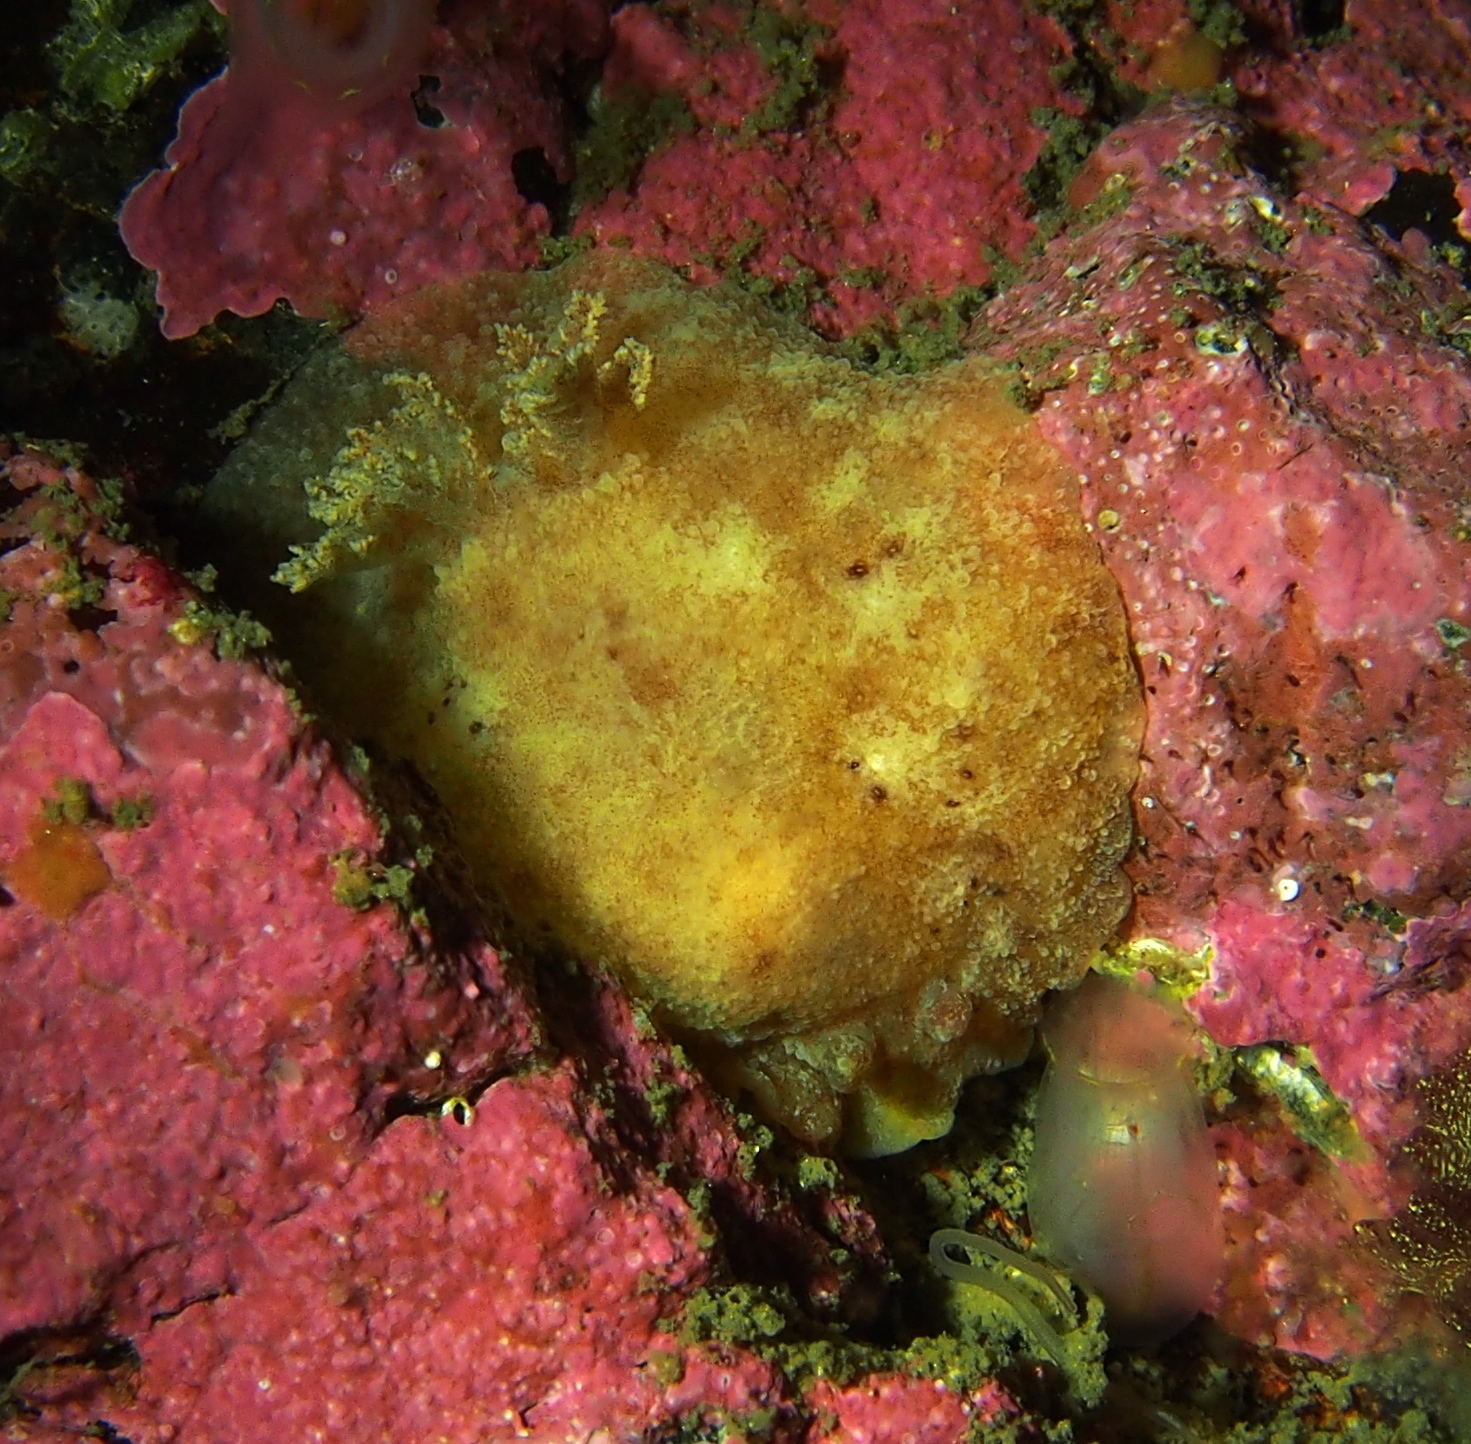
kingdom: Animalia
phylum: Mollusca
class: Gastropoda
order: Nudibranchia
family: Discodorididae
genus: Geitodoris
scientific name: Geitodoris planata
